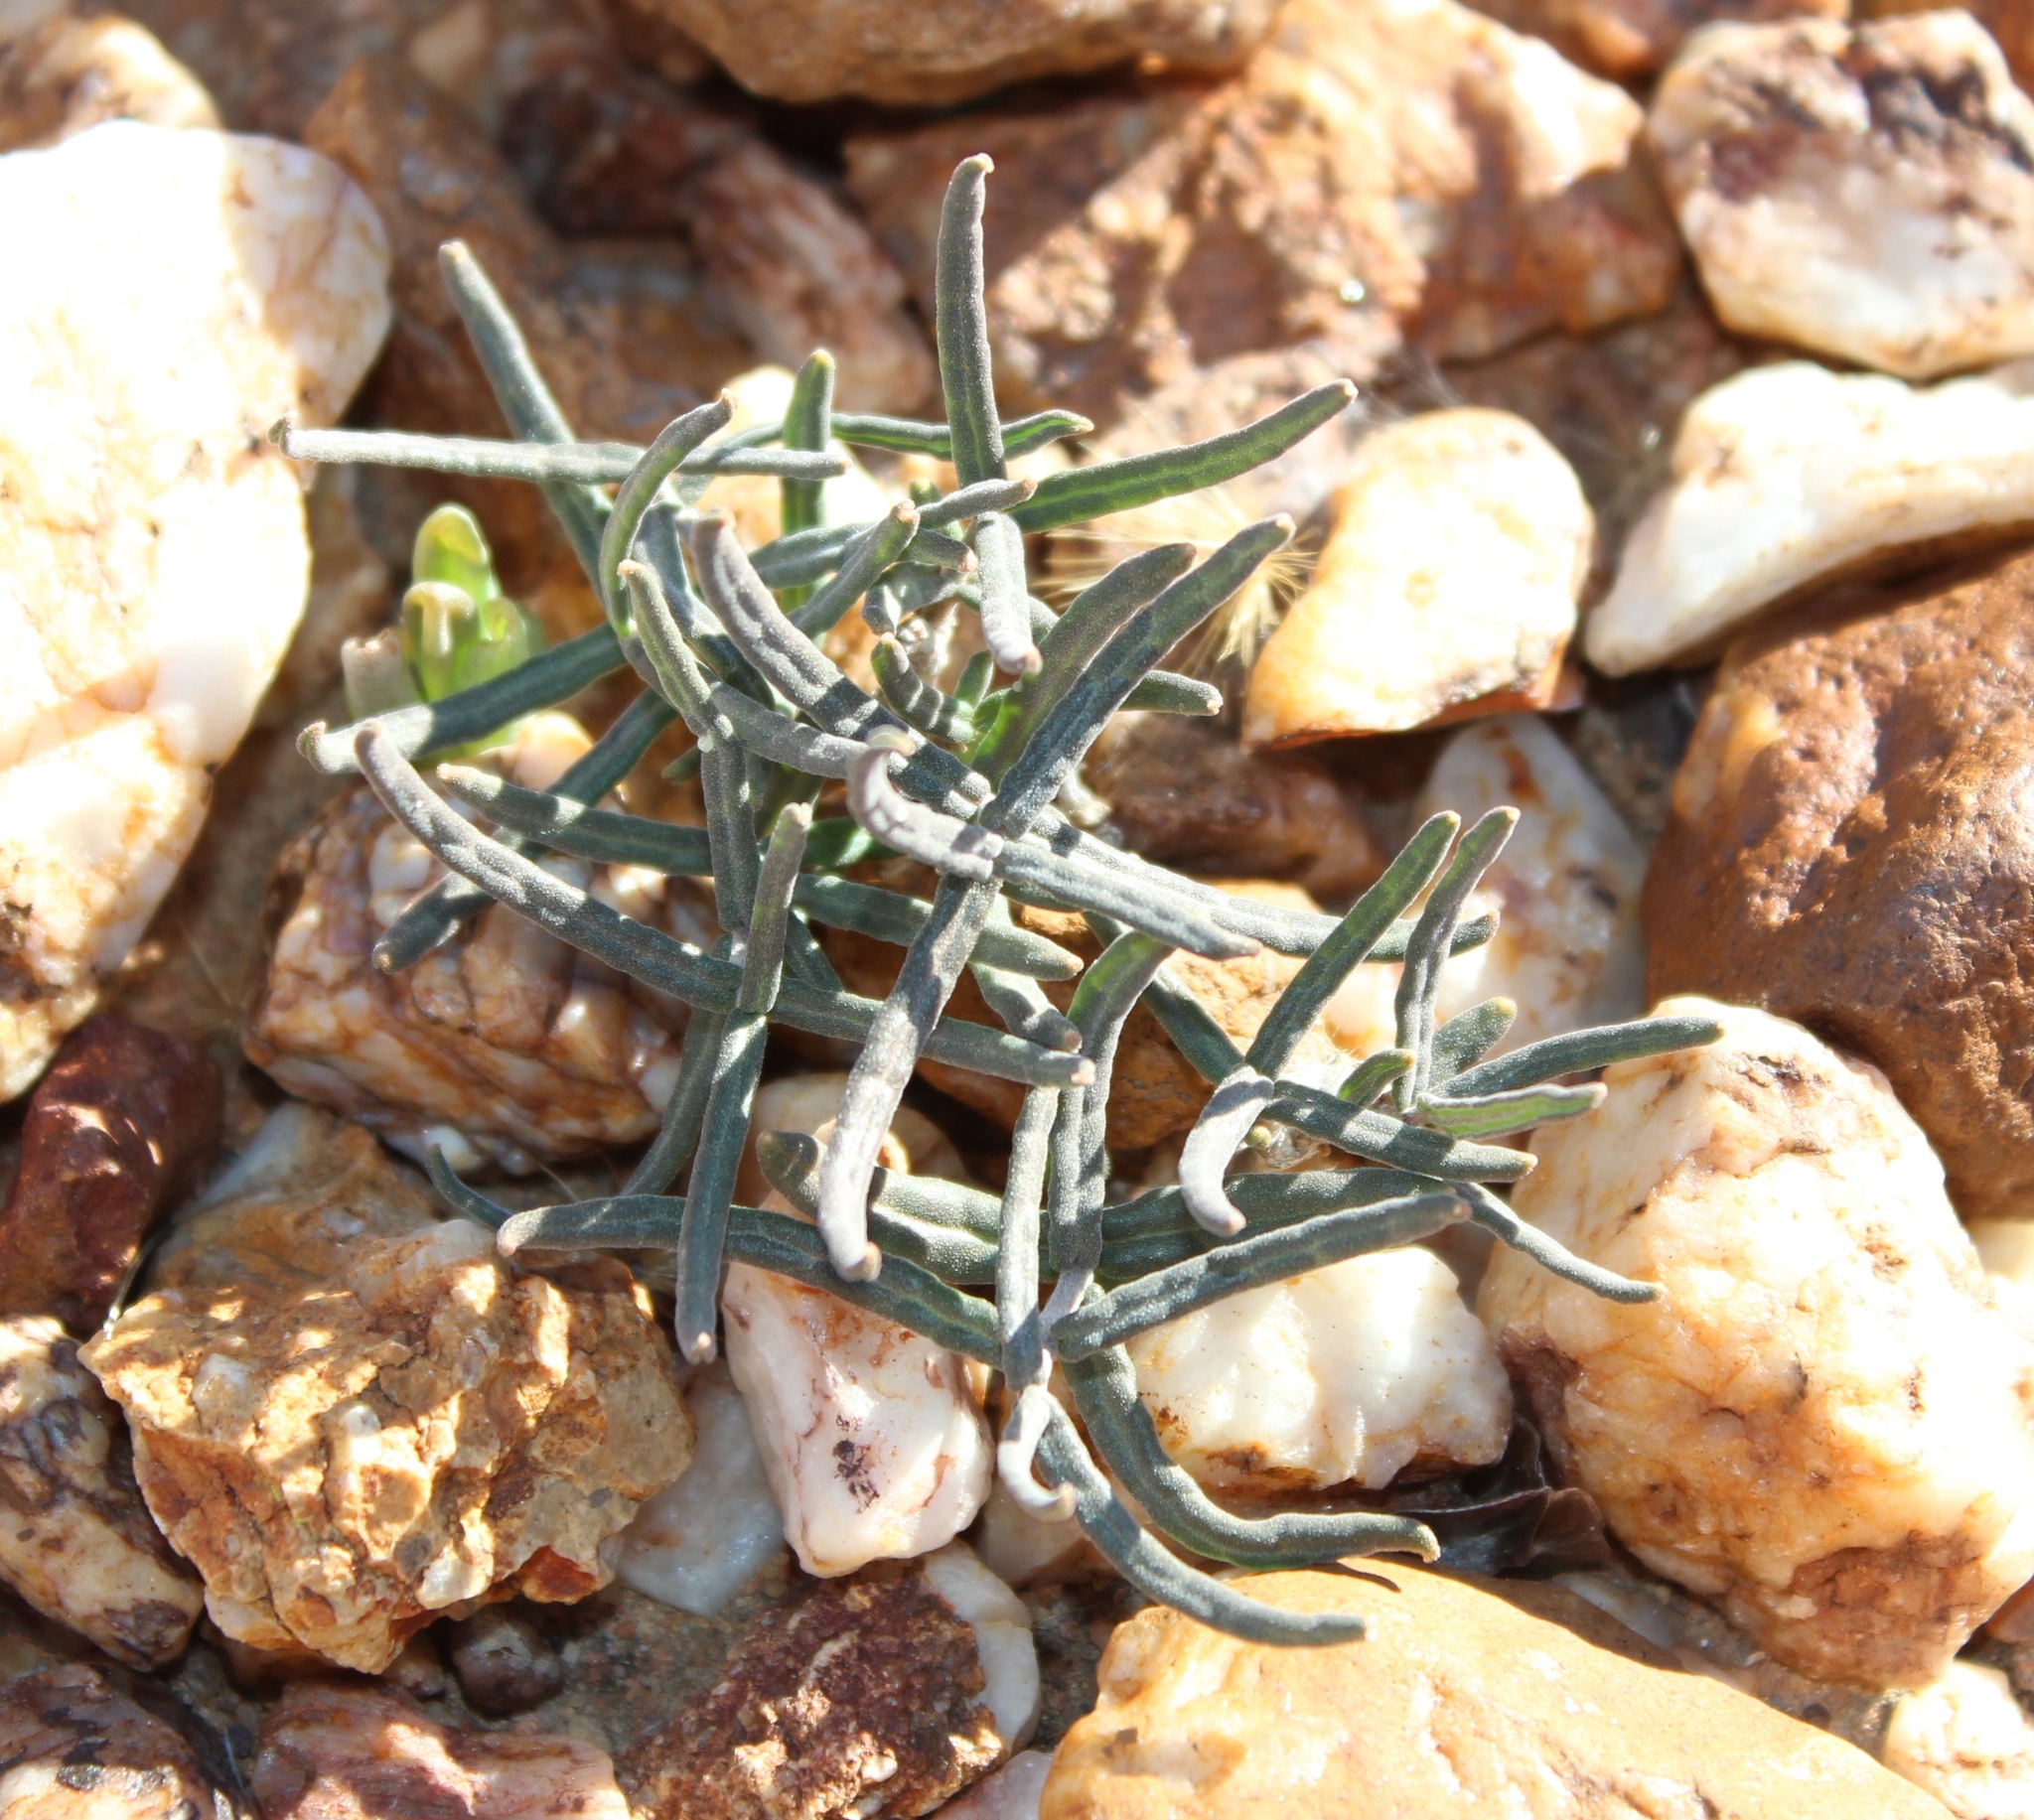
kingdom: Plantae
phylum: Tracheophyta
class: Magnoliopsida
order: Gentianales
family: Apocynaceae
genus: Fockea
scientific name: Fockea comaru
